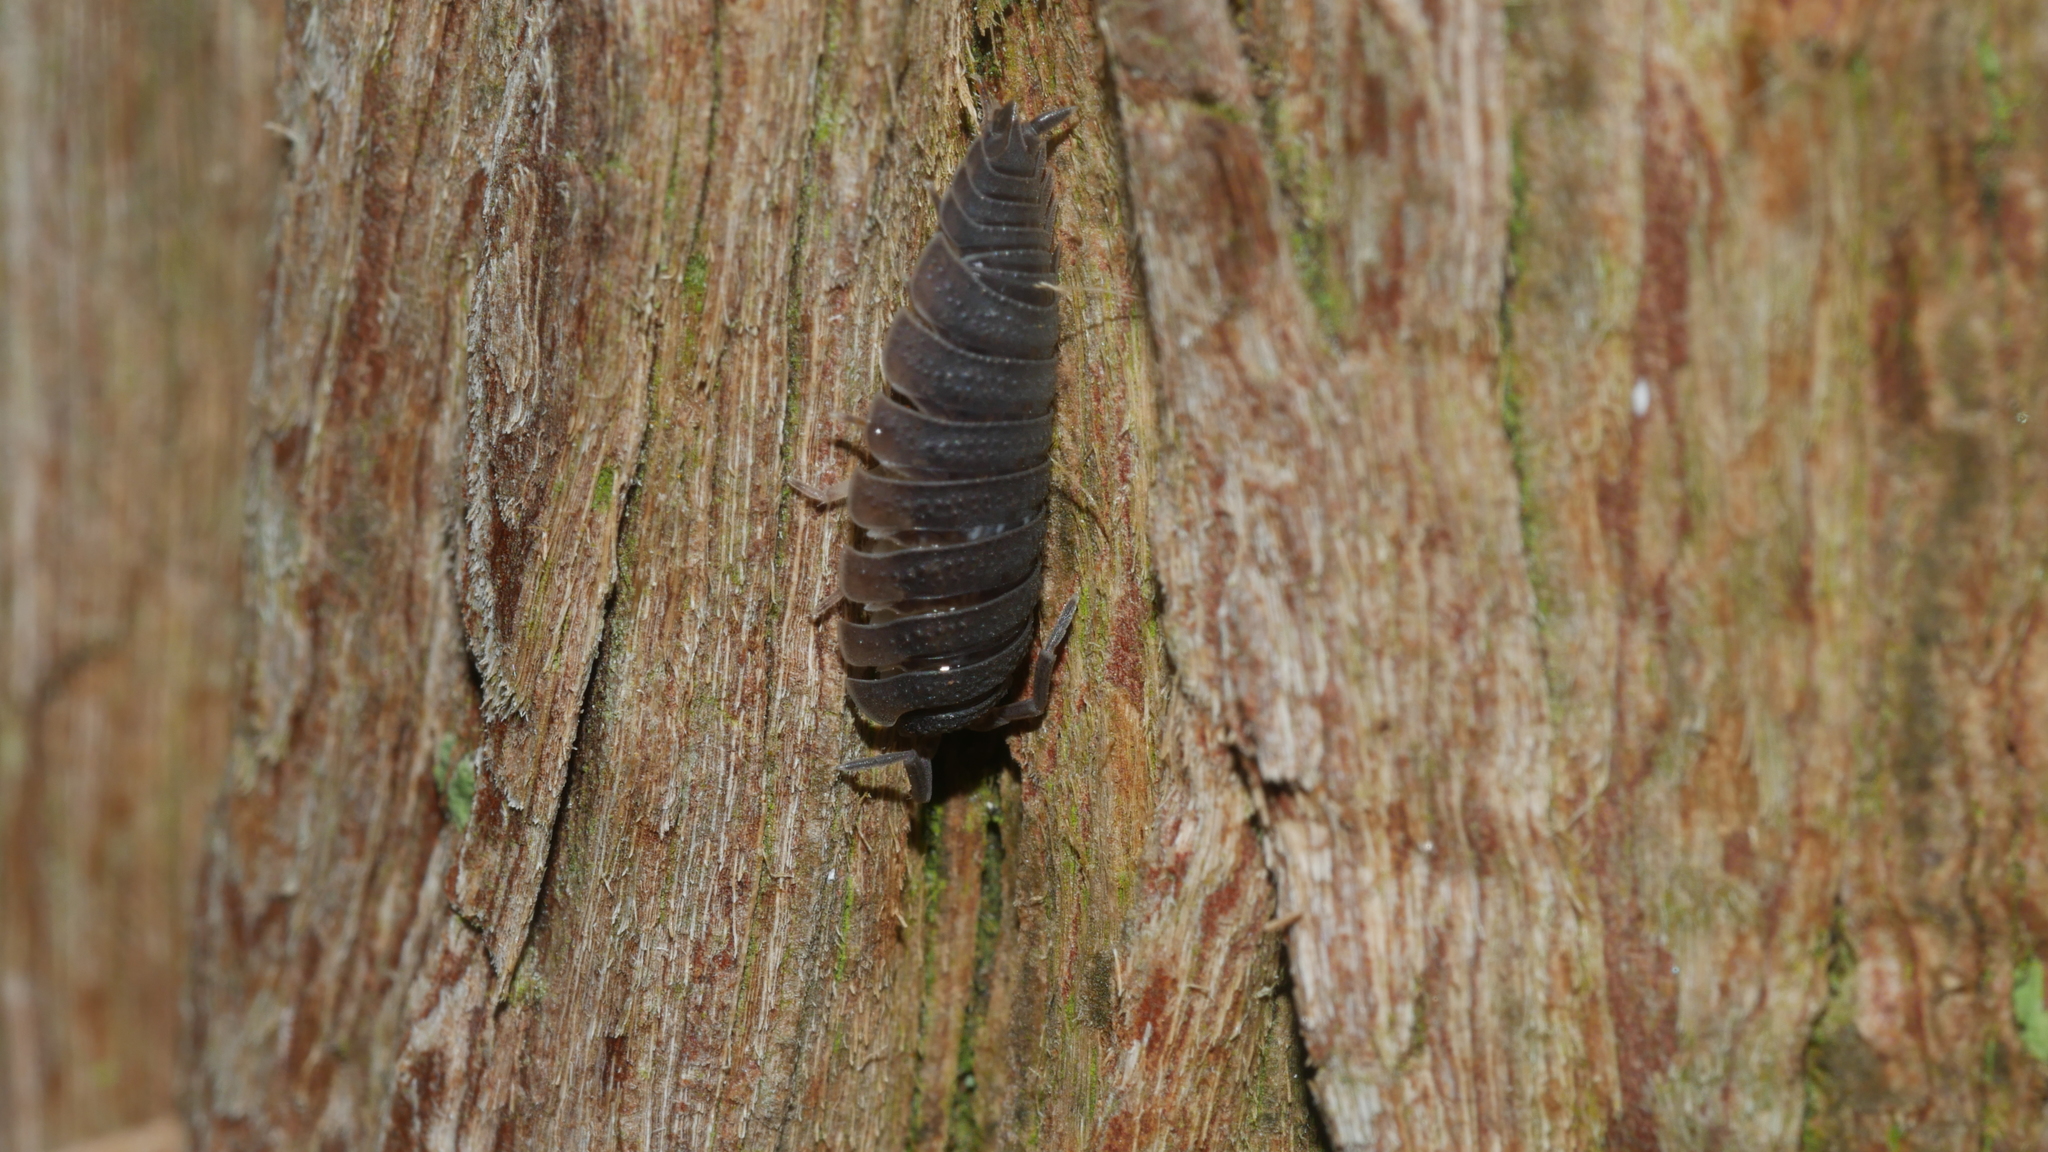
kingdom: Animalia
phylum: Arthropoda
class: Malacostraca
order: Isopoda
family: Porcellionidae
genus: Porcellio
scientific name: Porcellio scaber
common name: Common rough woodlouse
